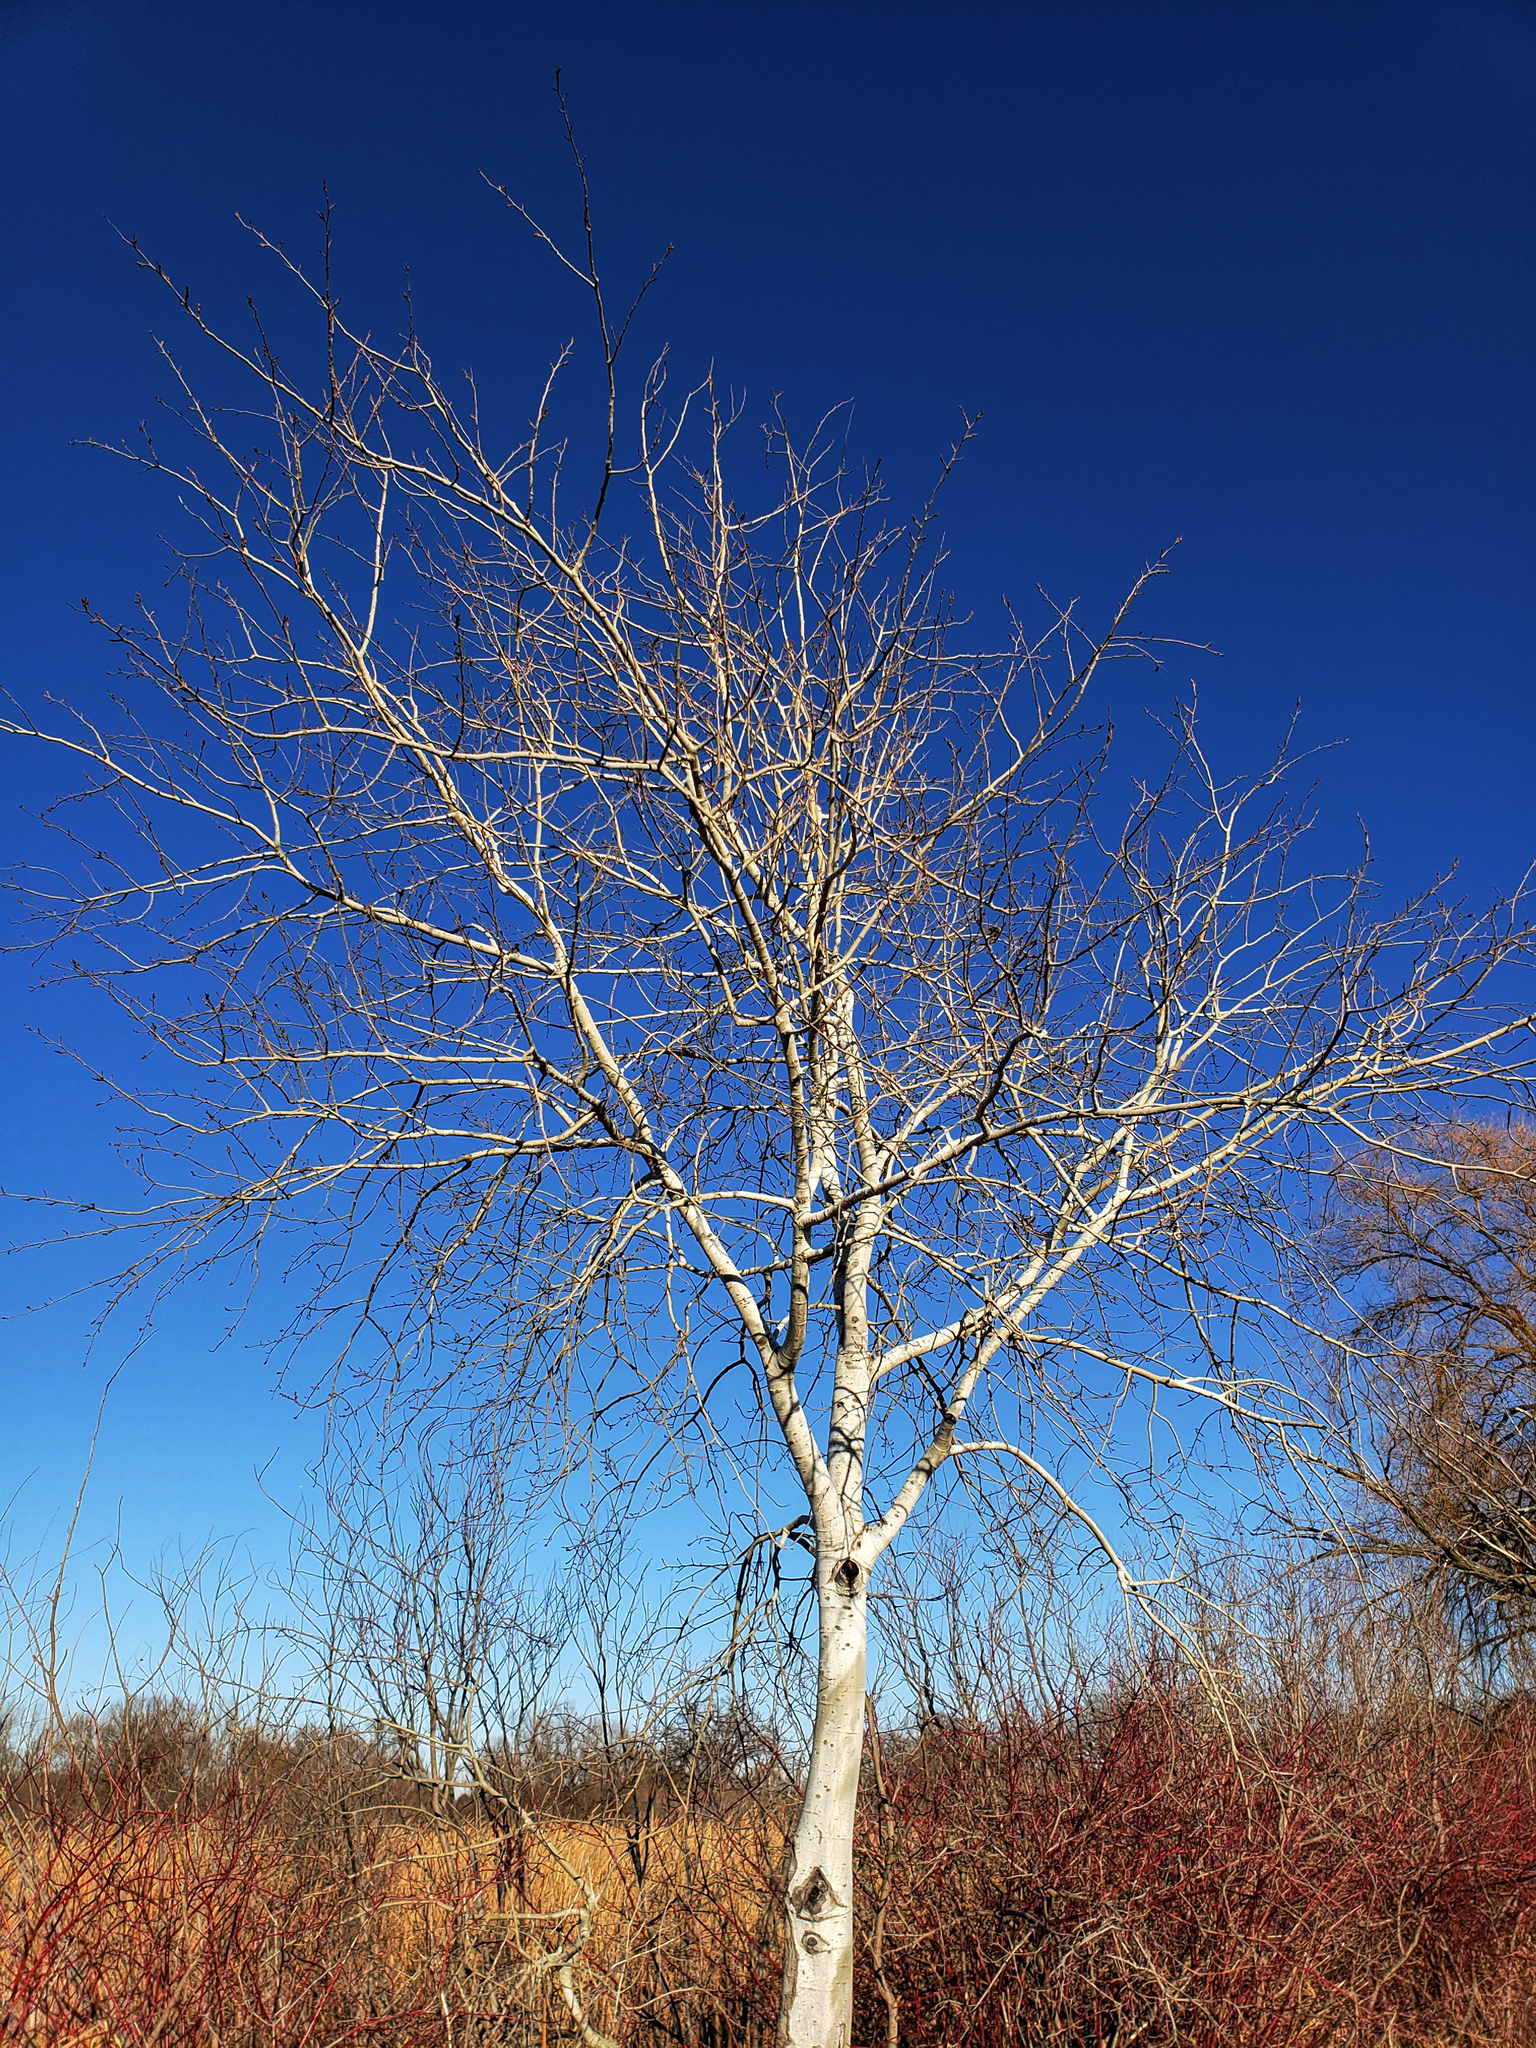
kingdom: Plantae
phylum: Tracheophyta
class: Magnoliopsida
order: Malpighiales
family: Salicaceae
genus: Populus
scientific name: Populus tremuloides
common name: Quaking aspen
